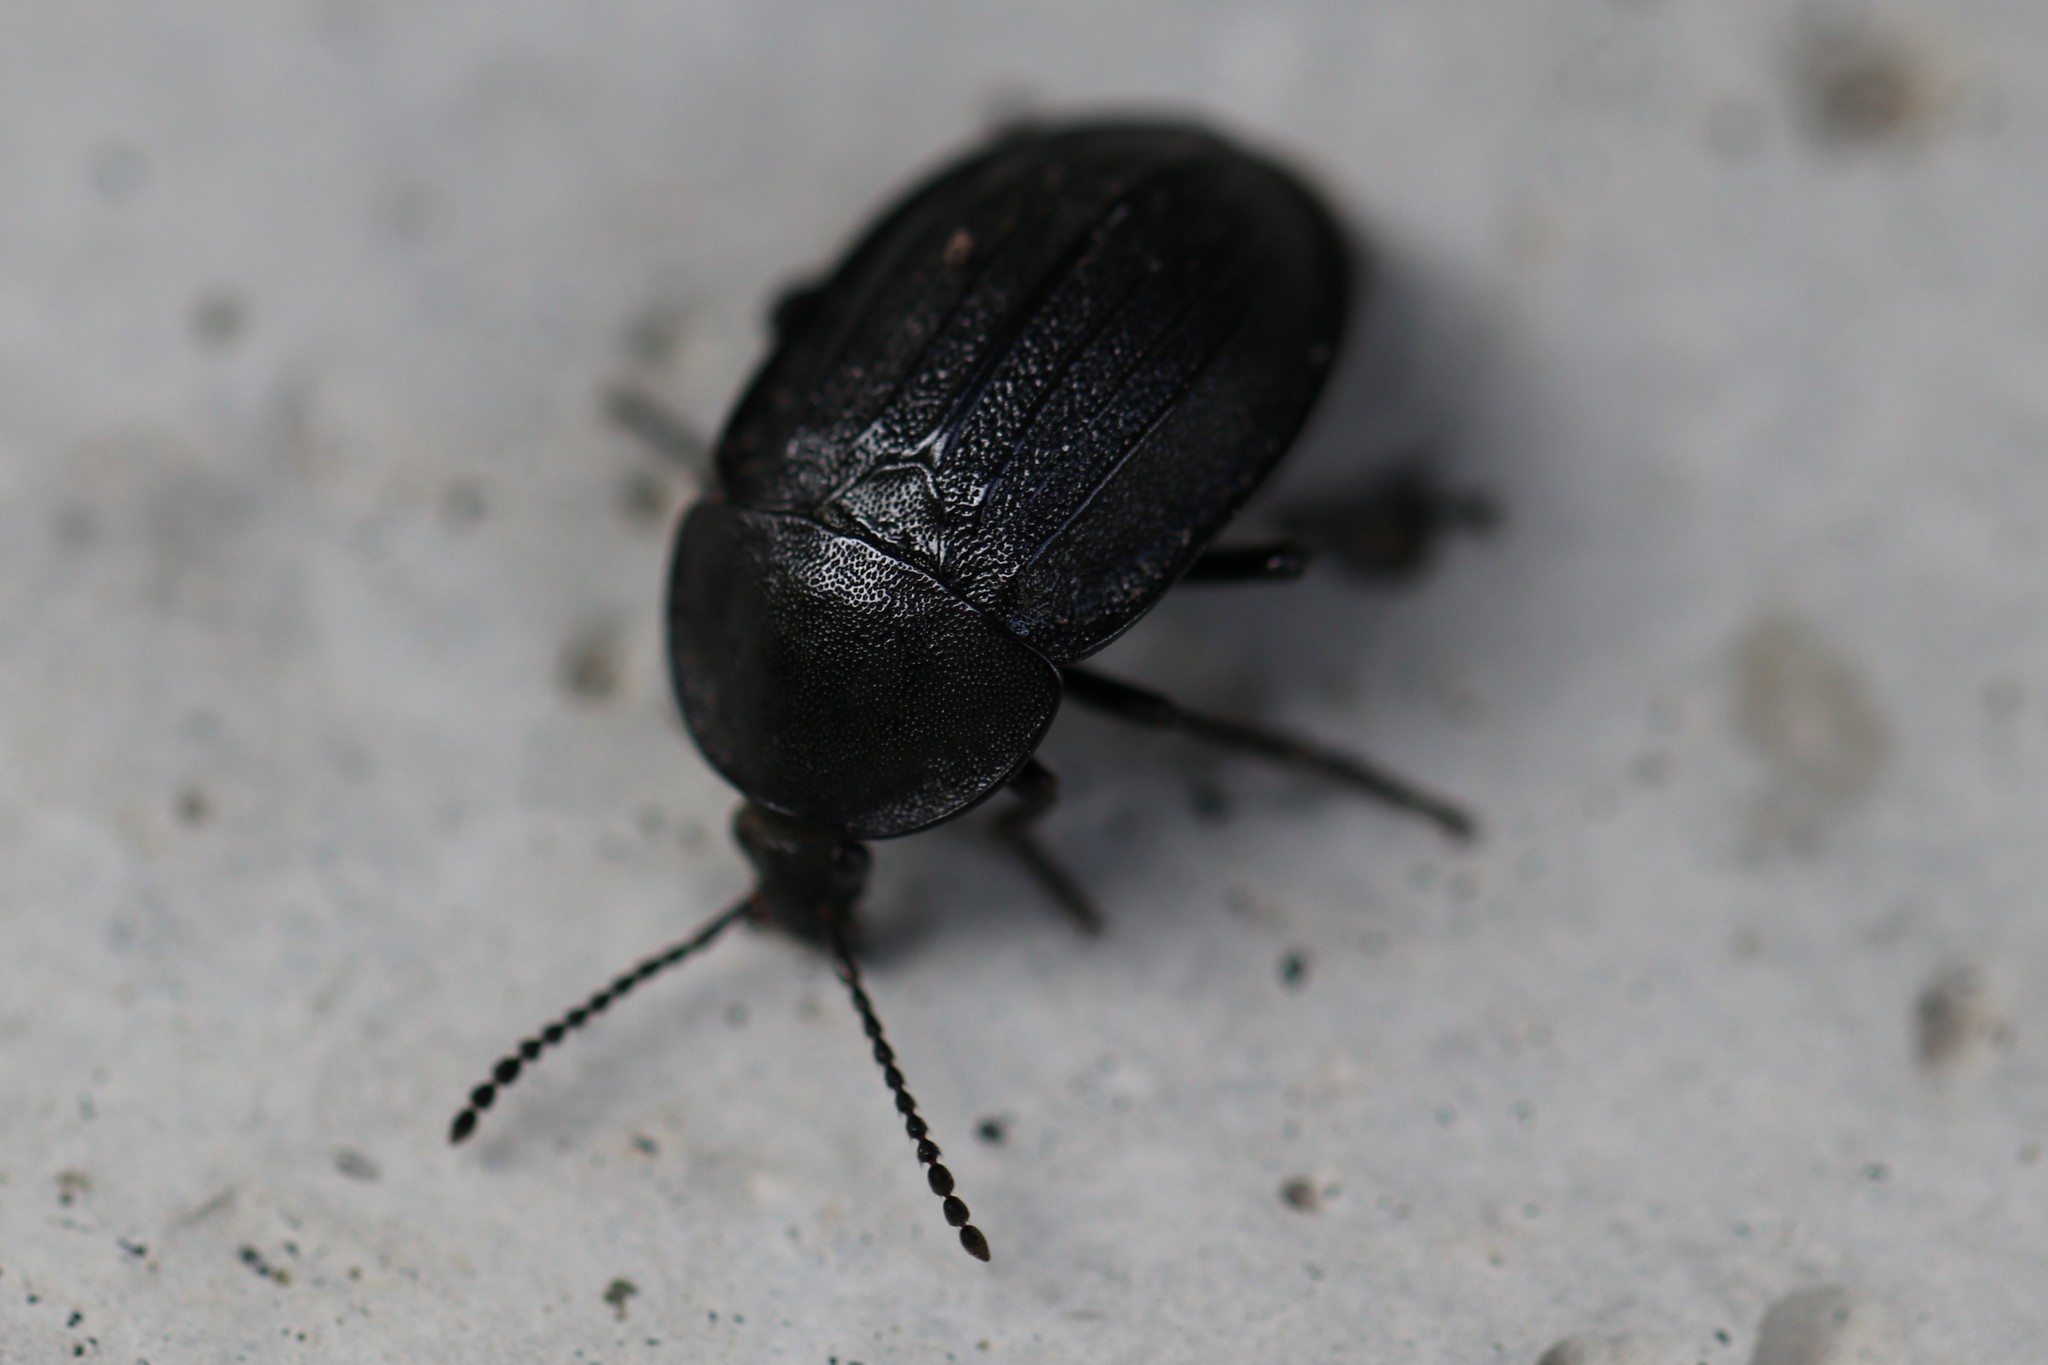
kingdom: Animalia
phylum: Arthropoda
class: Insecta
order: Coleoptera
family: Staphylinidae
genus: Silpha
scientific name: Silpha atrata
